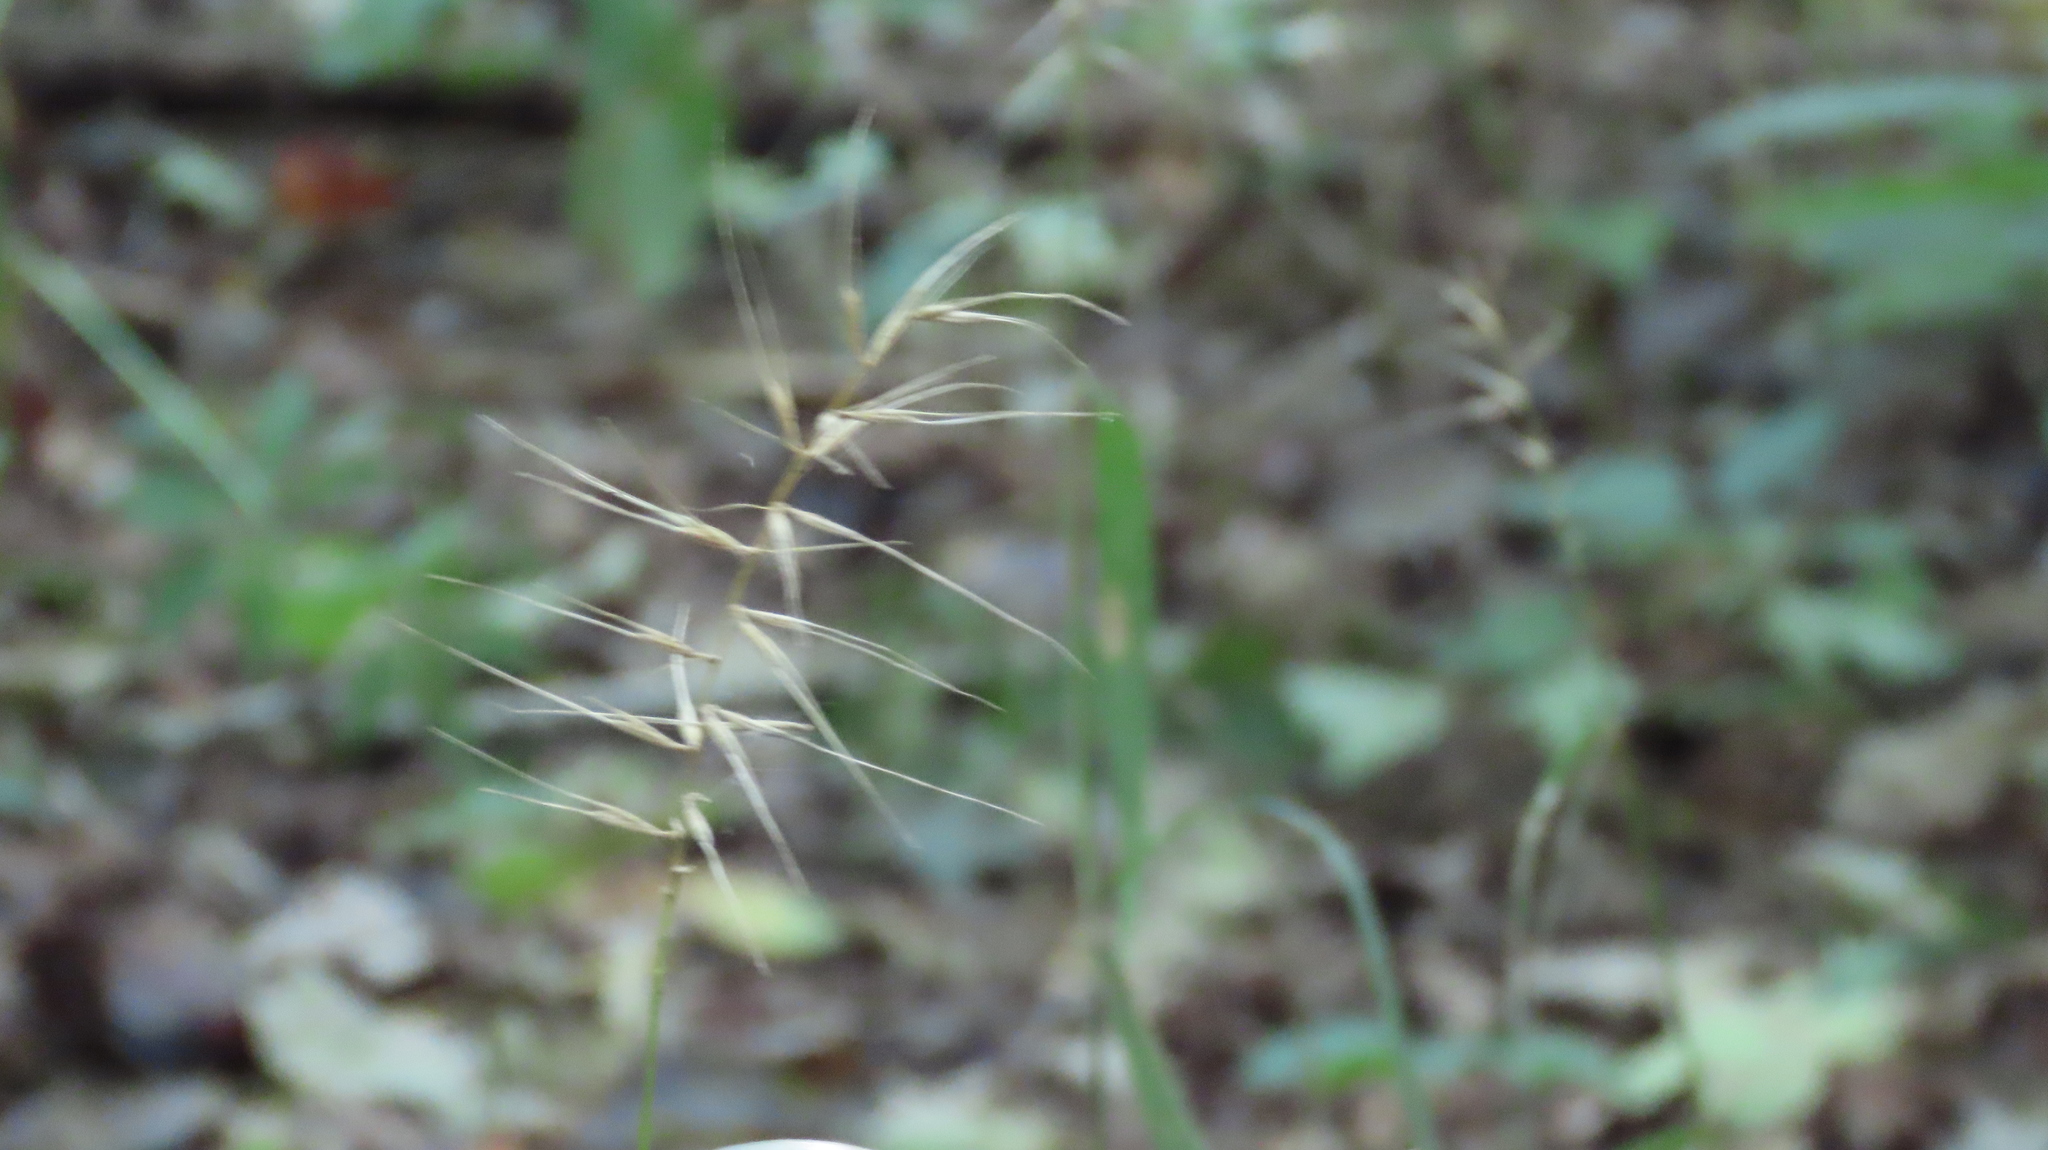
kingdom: Plantae
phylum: Tracheophyta
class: Liliopsida
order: Poales
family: Poaceae
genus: Elymus
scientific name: Elymus hystrix
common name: Bottlebrush grass
